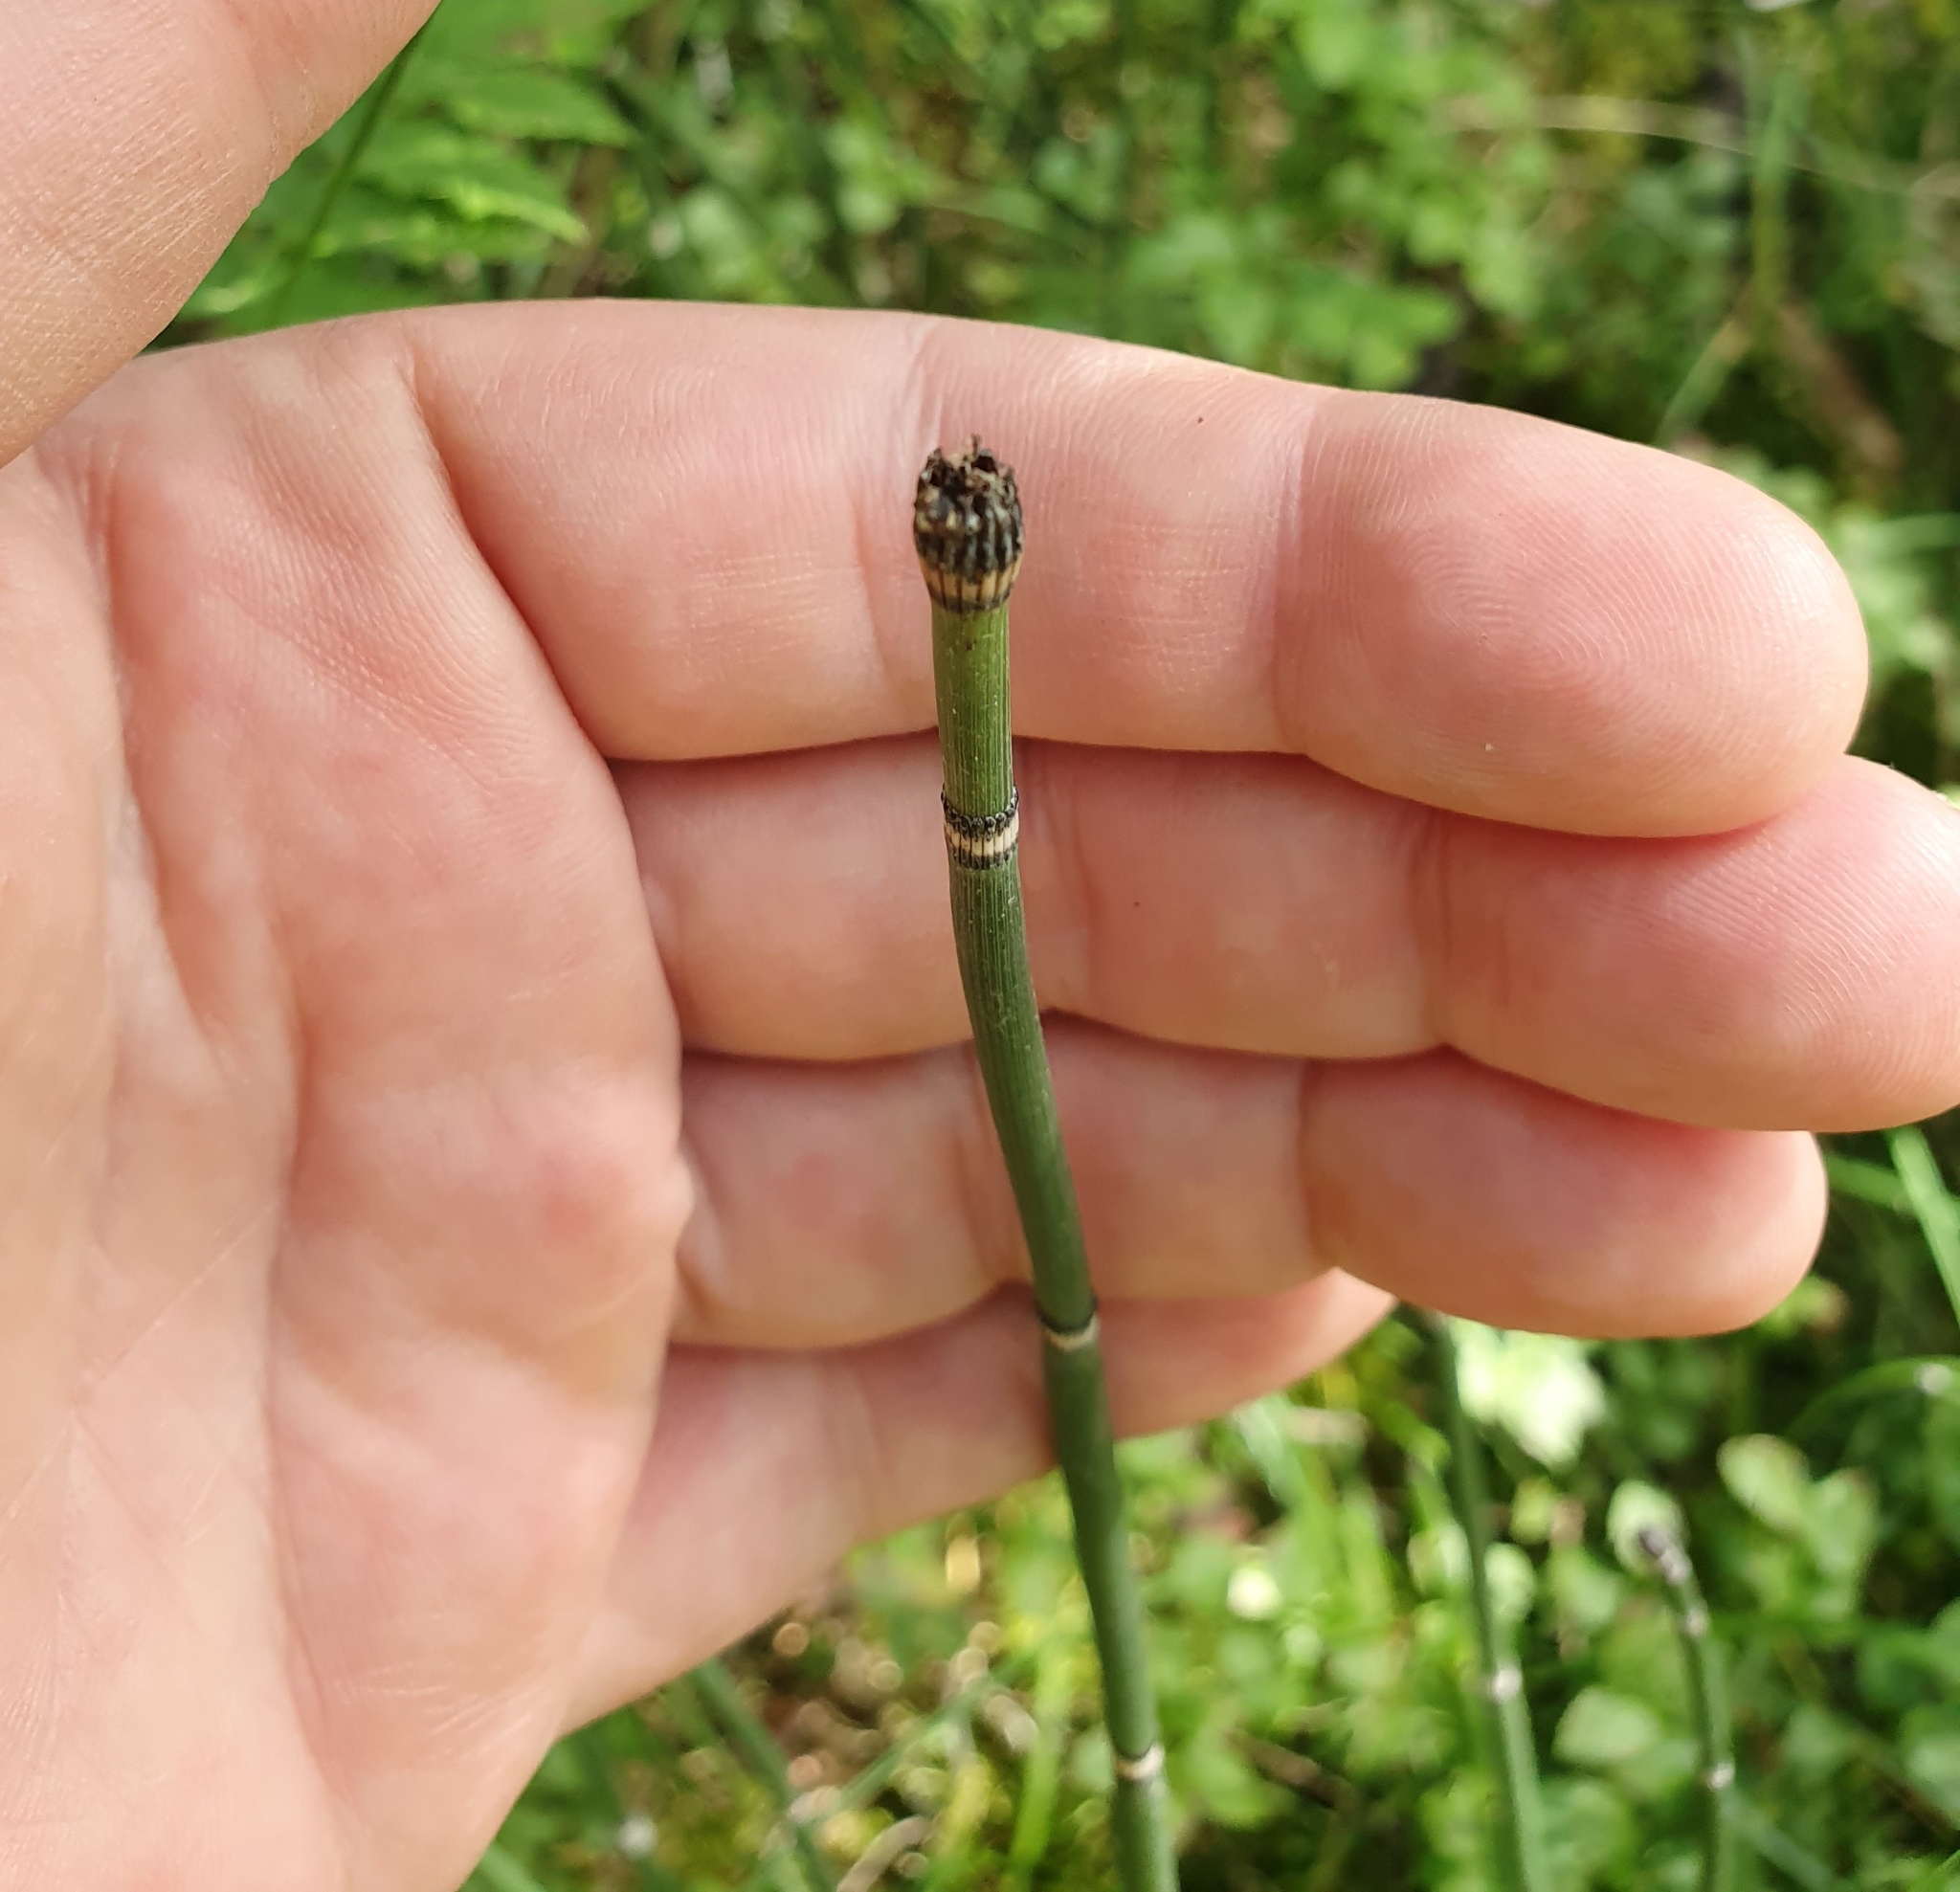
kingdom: Plantae
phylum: Tracheophyta
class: Polypodiopsida
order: Equisetales
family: Equisetaceae
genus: Equisetum
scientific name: Equisetum hyemale
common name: Rough horsetail
